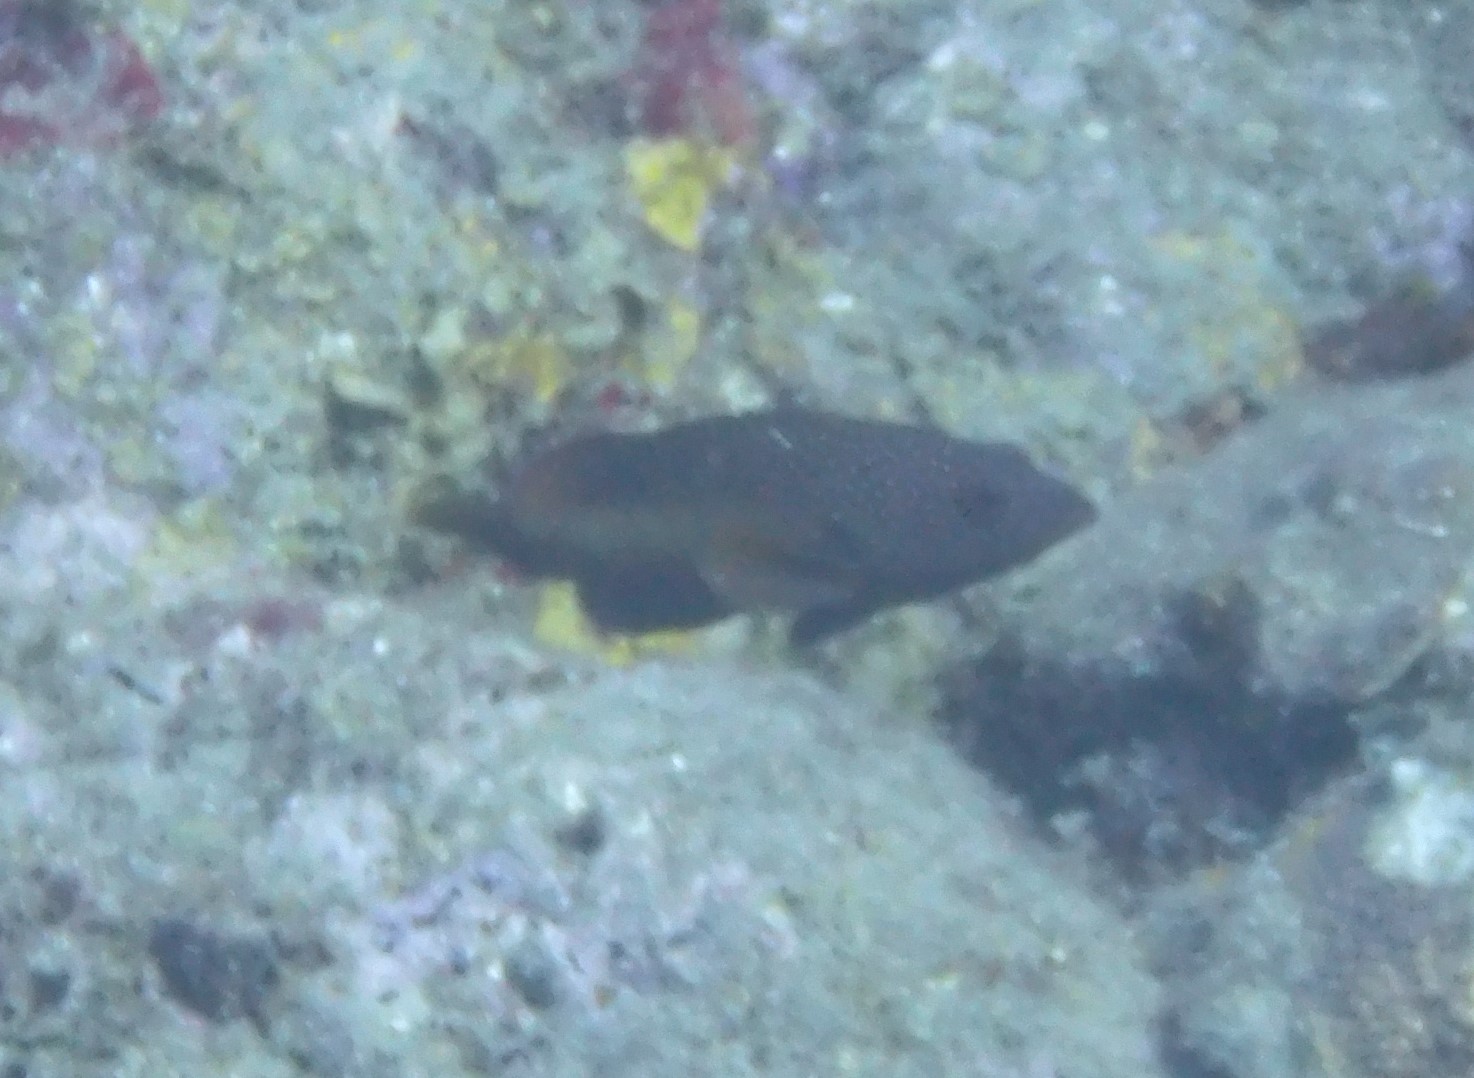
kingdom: Animalia
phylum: Chordata
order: Perciformes
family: Serranidae
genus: Cephalopholis
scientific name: Cephalopholis fulva
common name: Butterfish
